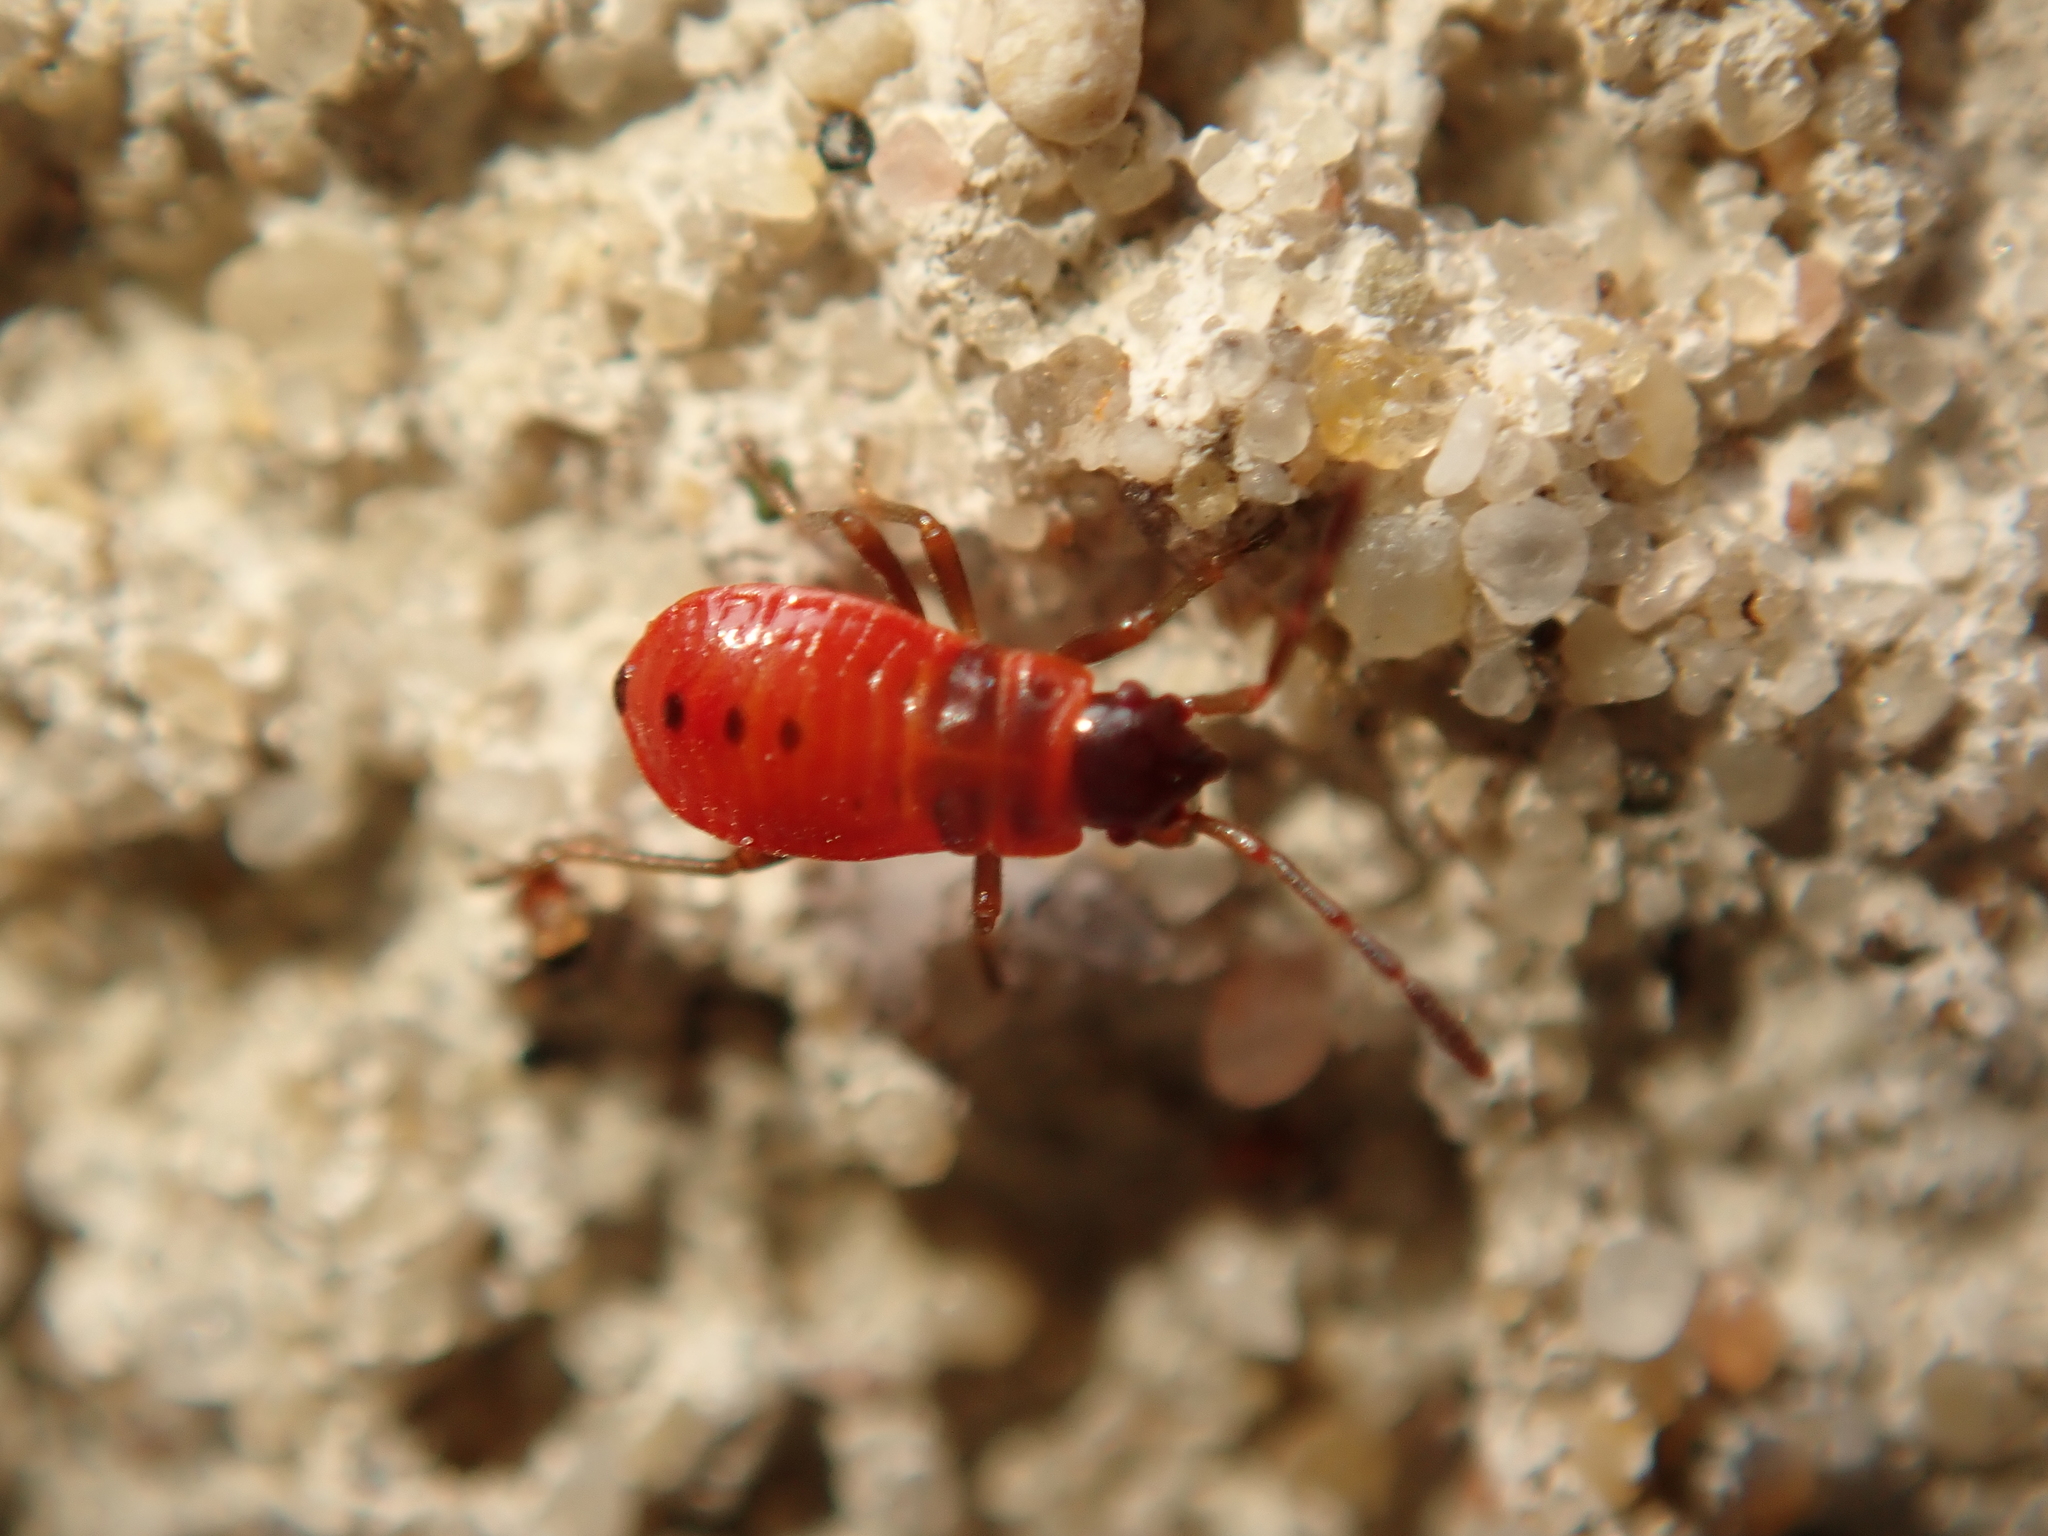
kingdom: Animalia
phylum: Arthropoda
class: Insecta
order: Hemiptera
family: Pyrrhocoridae
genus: Pyrrhocoris
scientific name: Pyrrhocoris apterus
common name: Firebug
